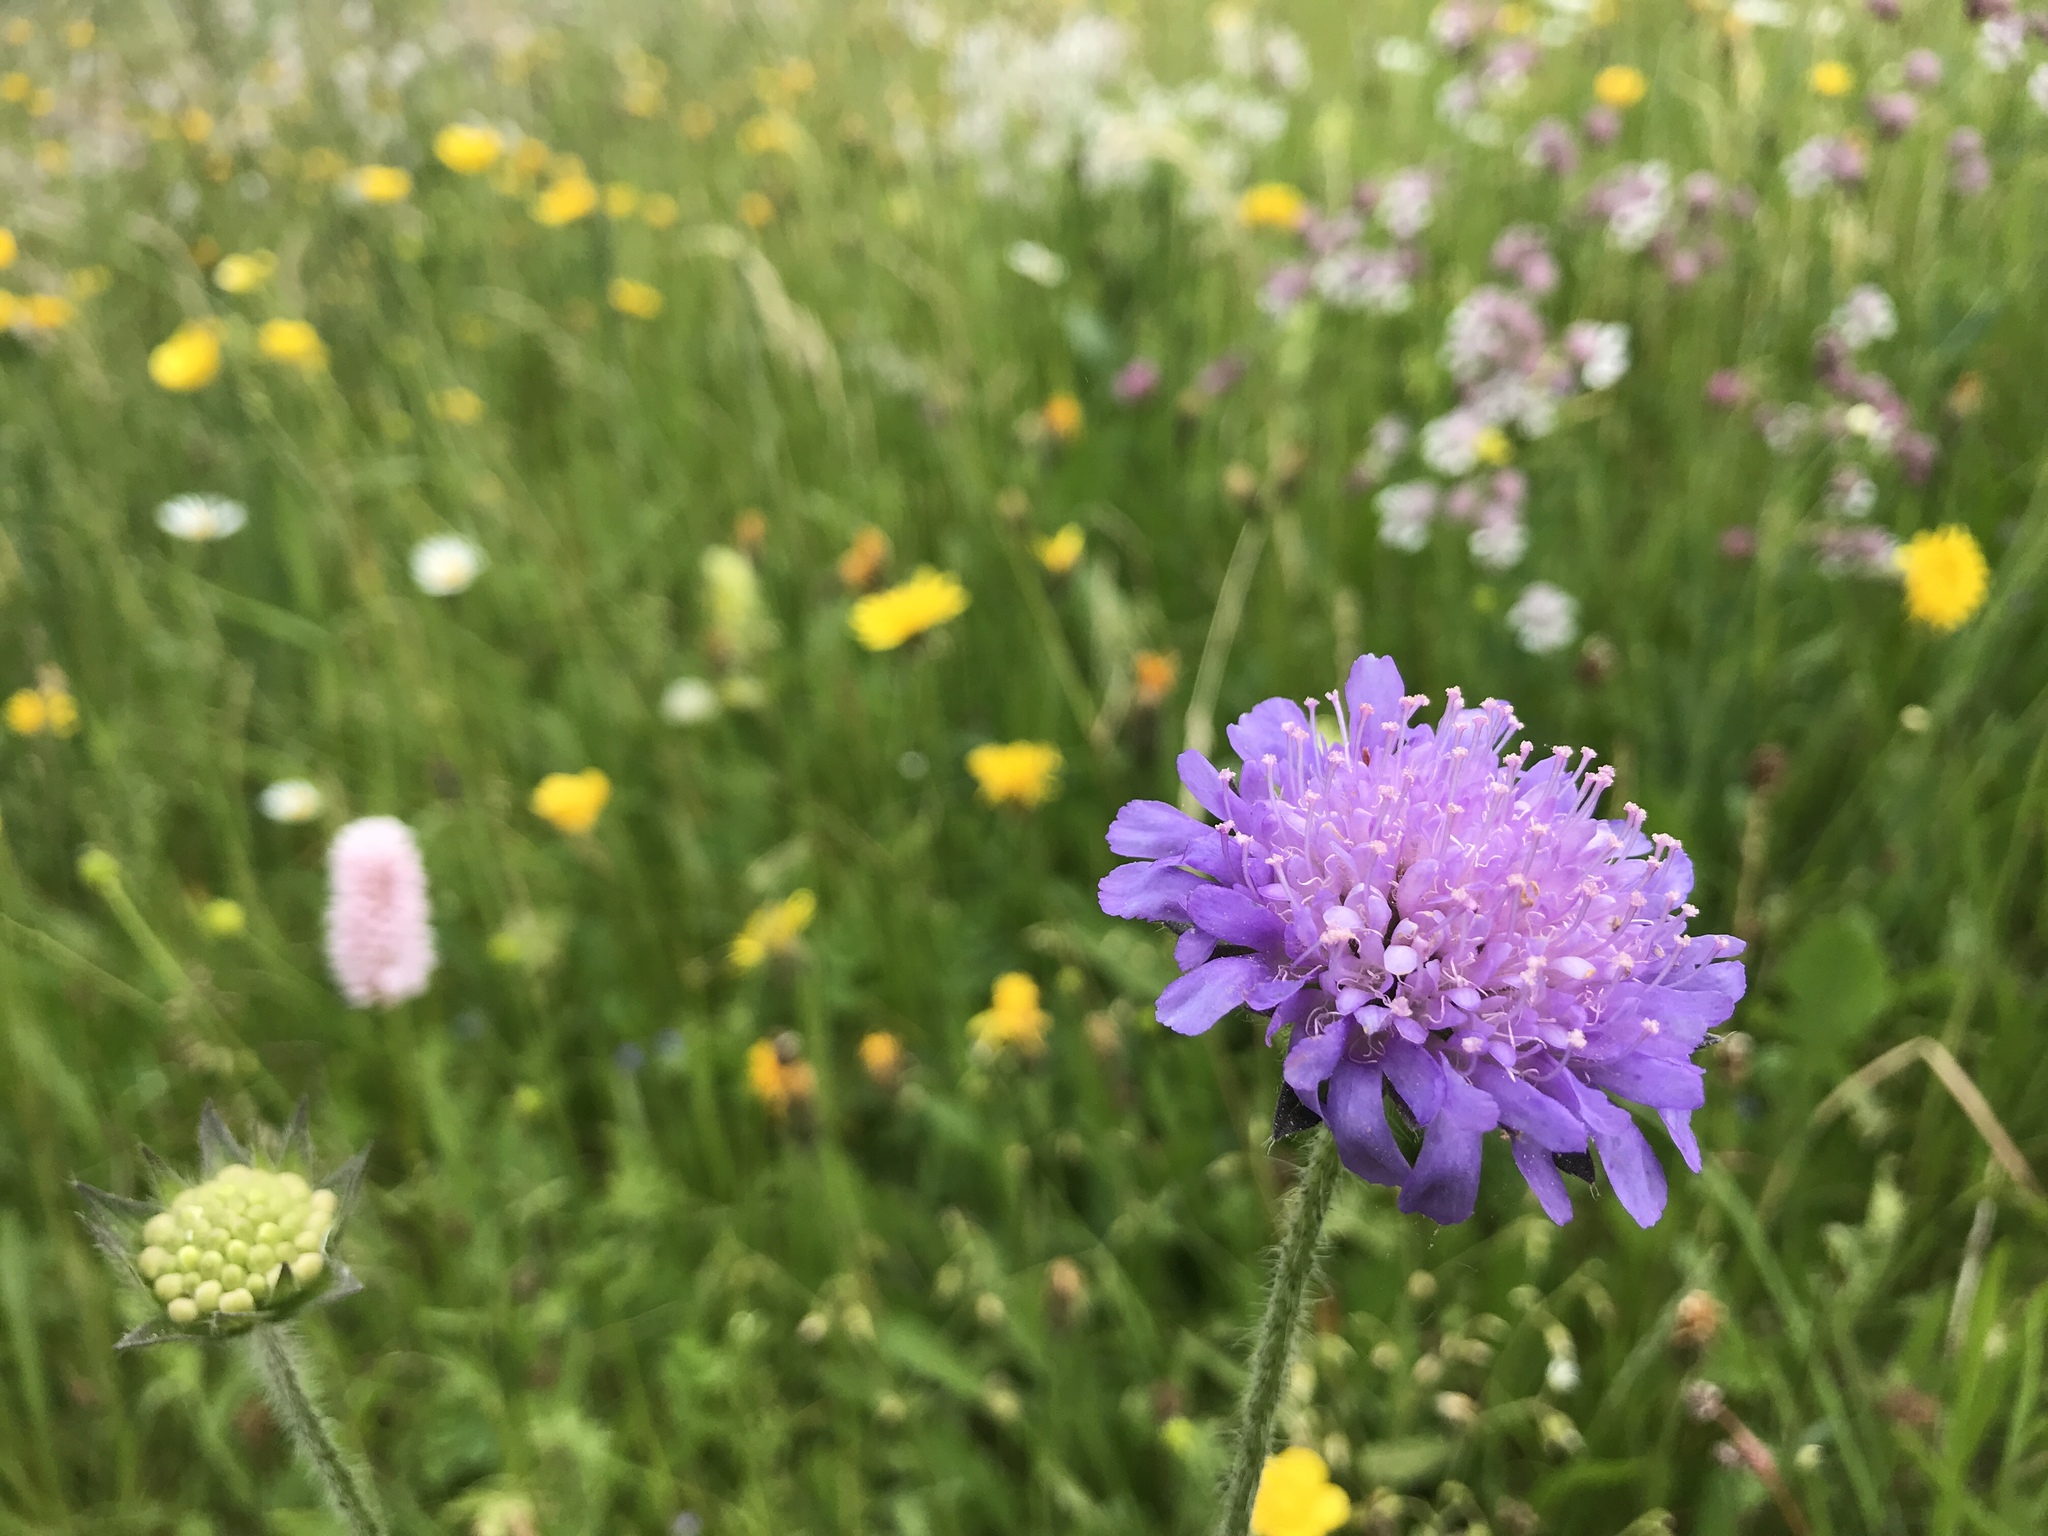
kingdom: Plantae
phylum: Tracheophyta
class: Magnoliopsida
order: Dipsacales
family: Caprifoliaceae
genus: Knautia
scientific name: Knautia arvensis
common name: Field scabiosa
